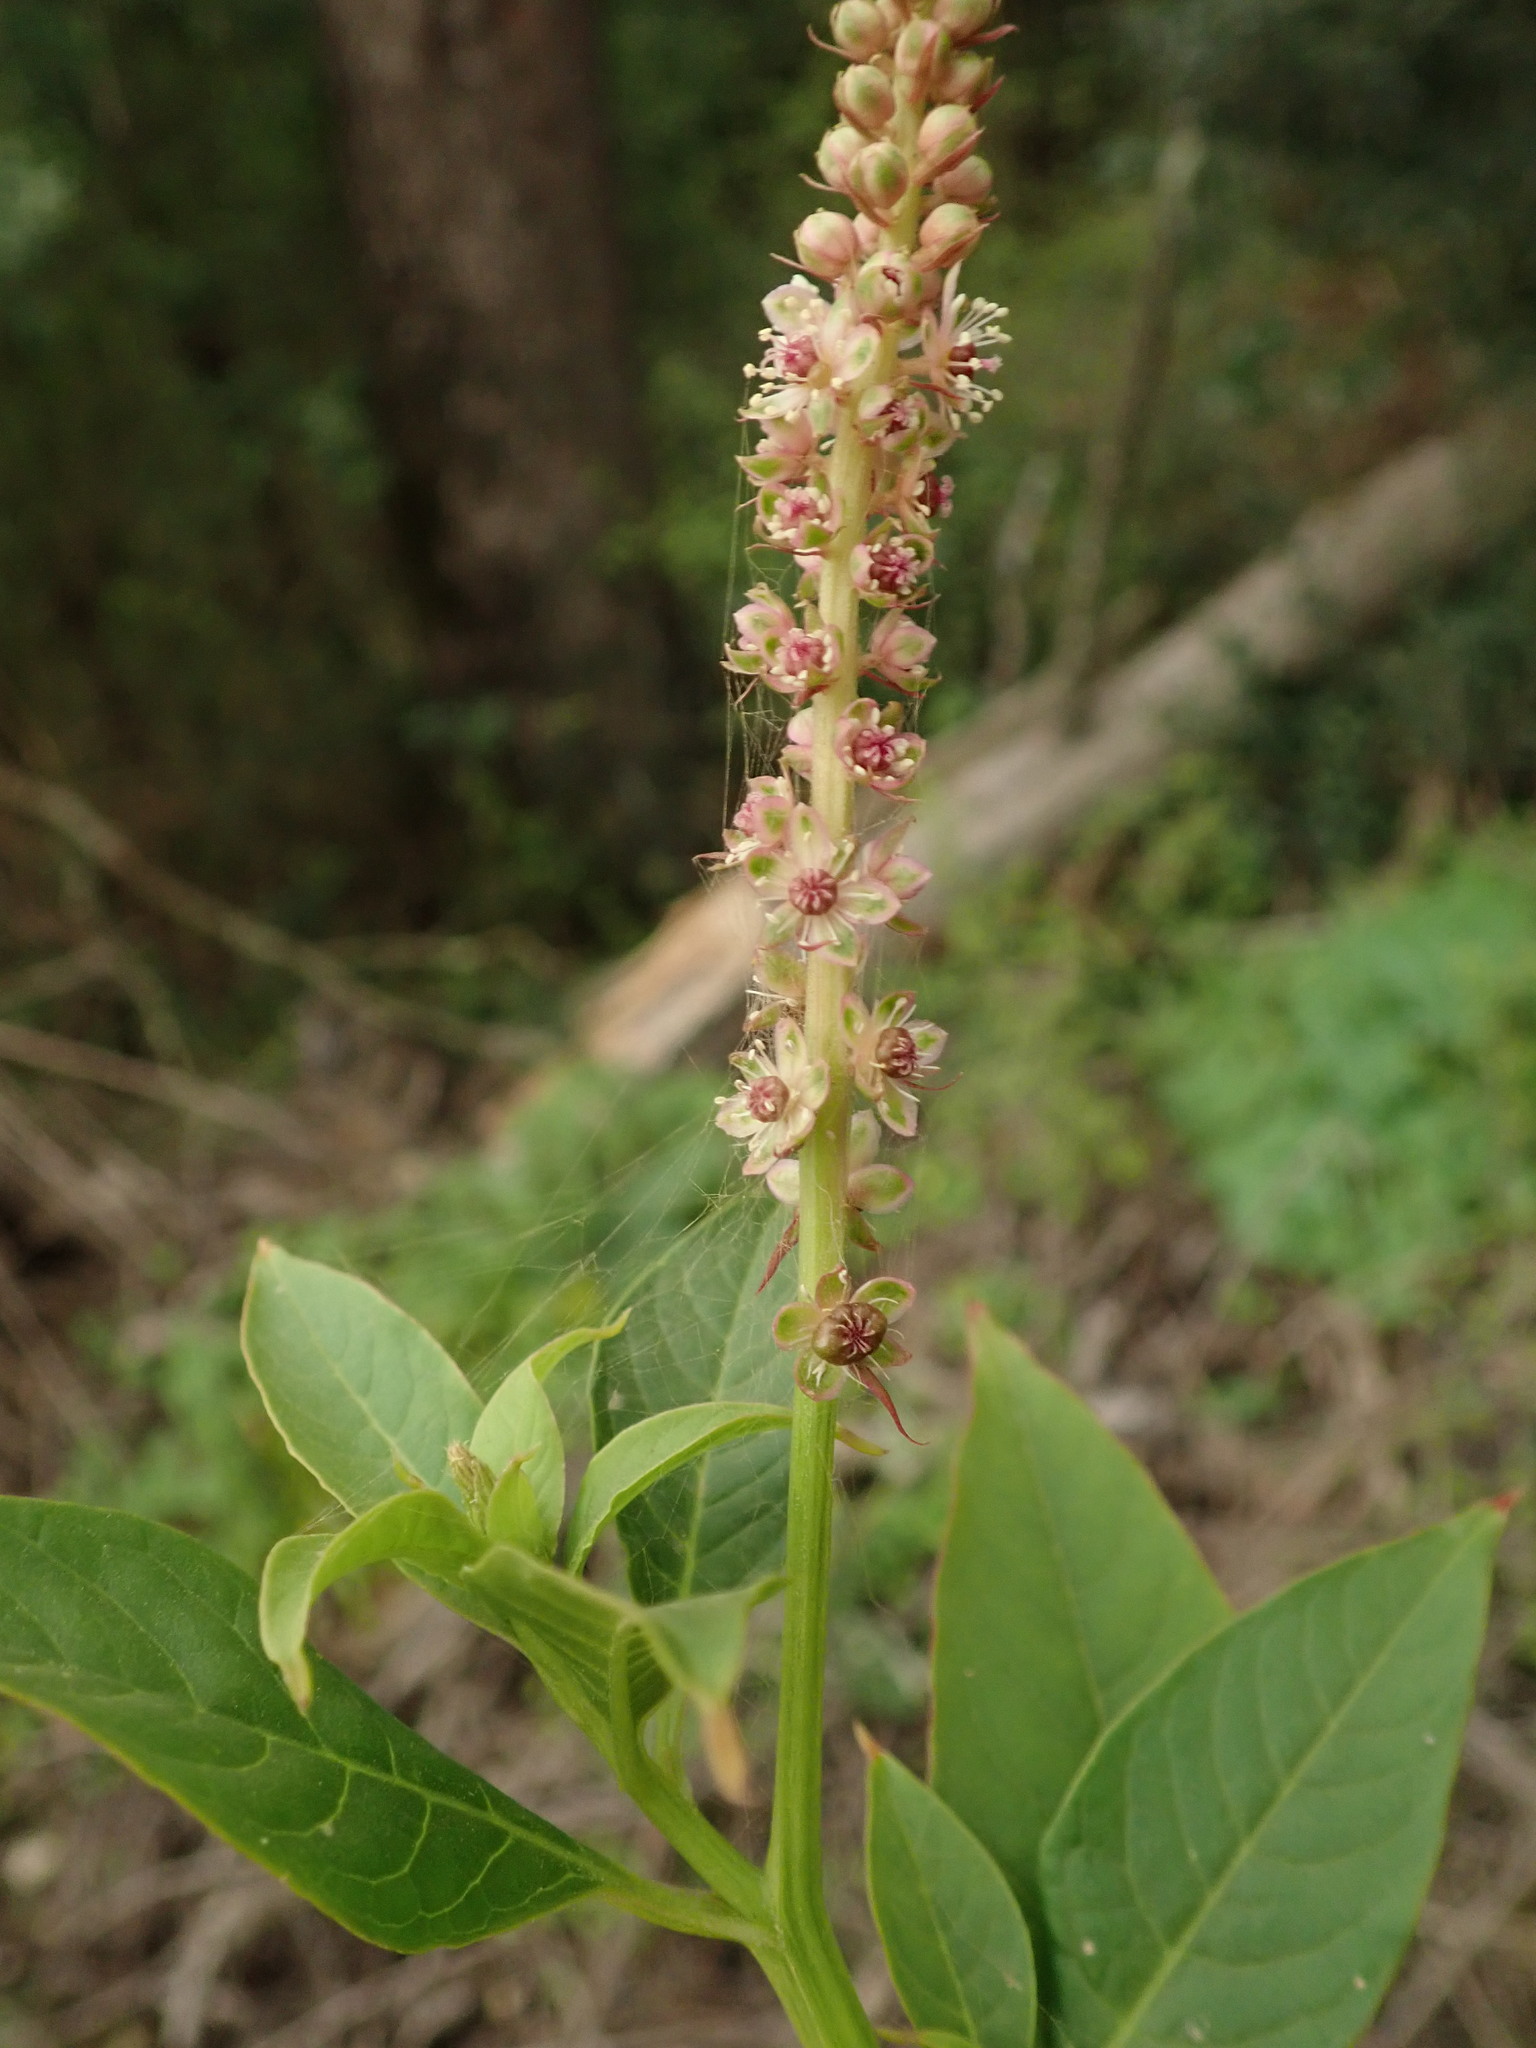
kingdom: Plantae
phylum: Tracheophyta
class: Magnoliopsida
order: Caryophyllales
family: Phytolaccaceae
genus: Phytolacca
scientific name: Phytolacca heterotepala
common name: Mexican pokeweed
